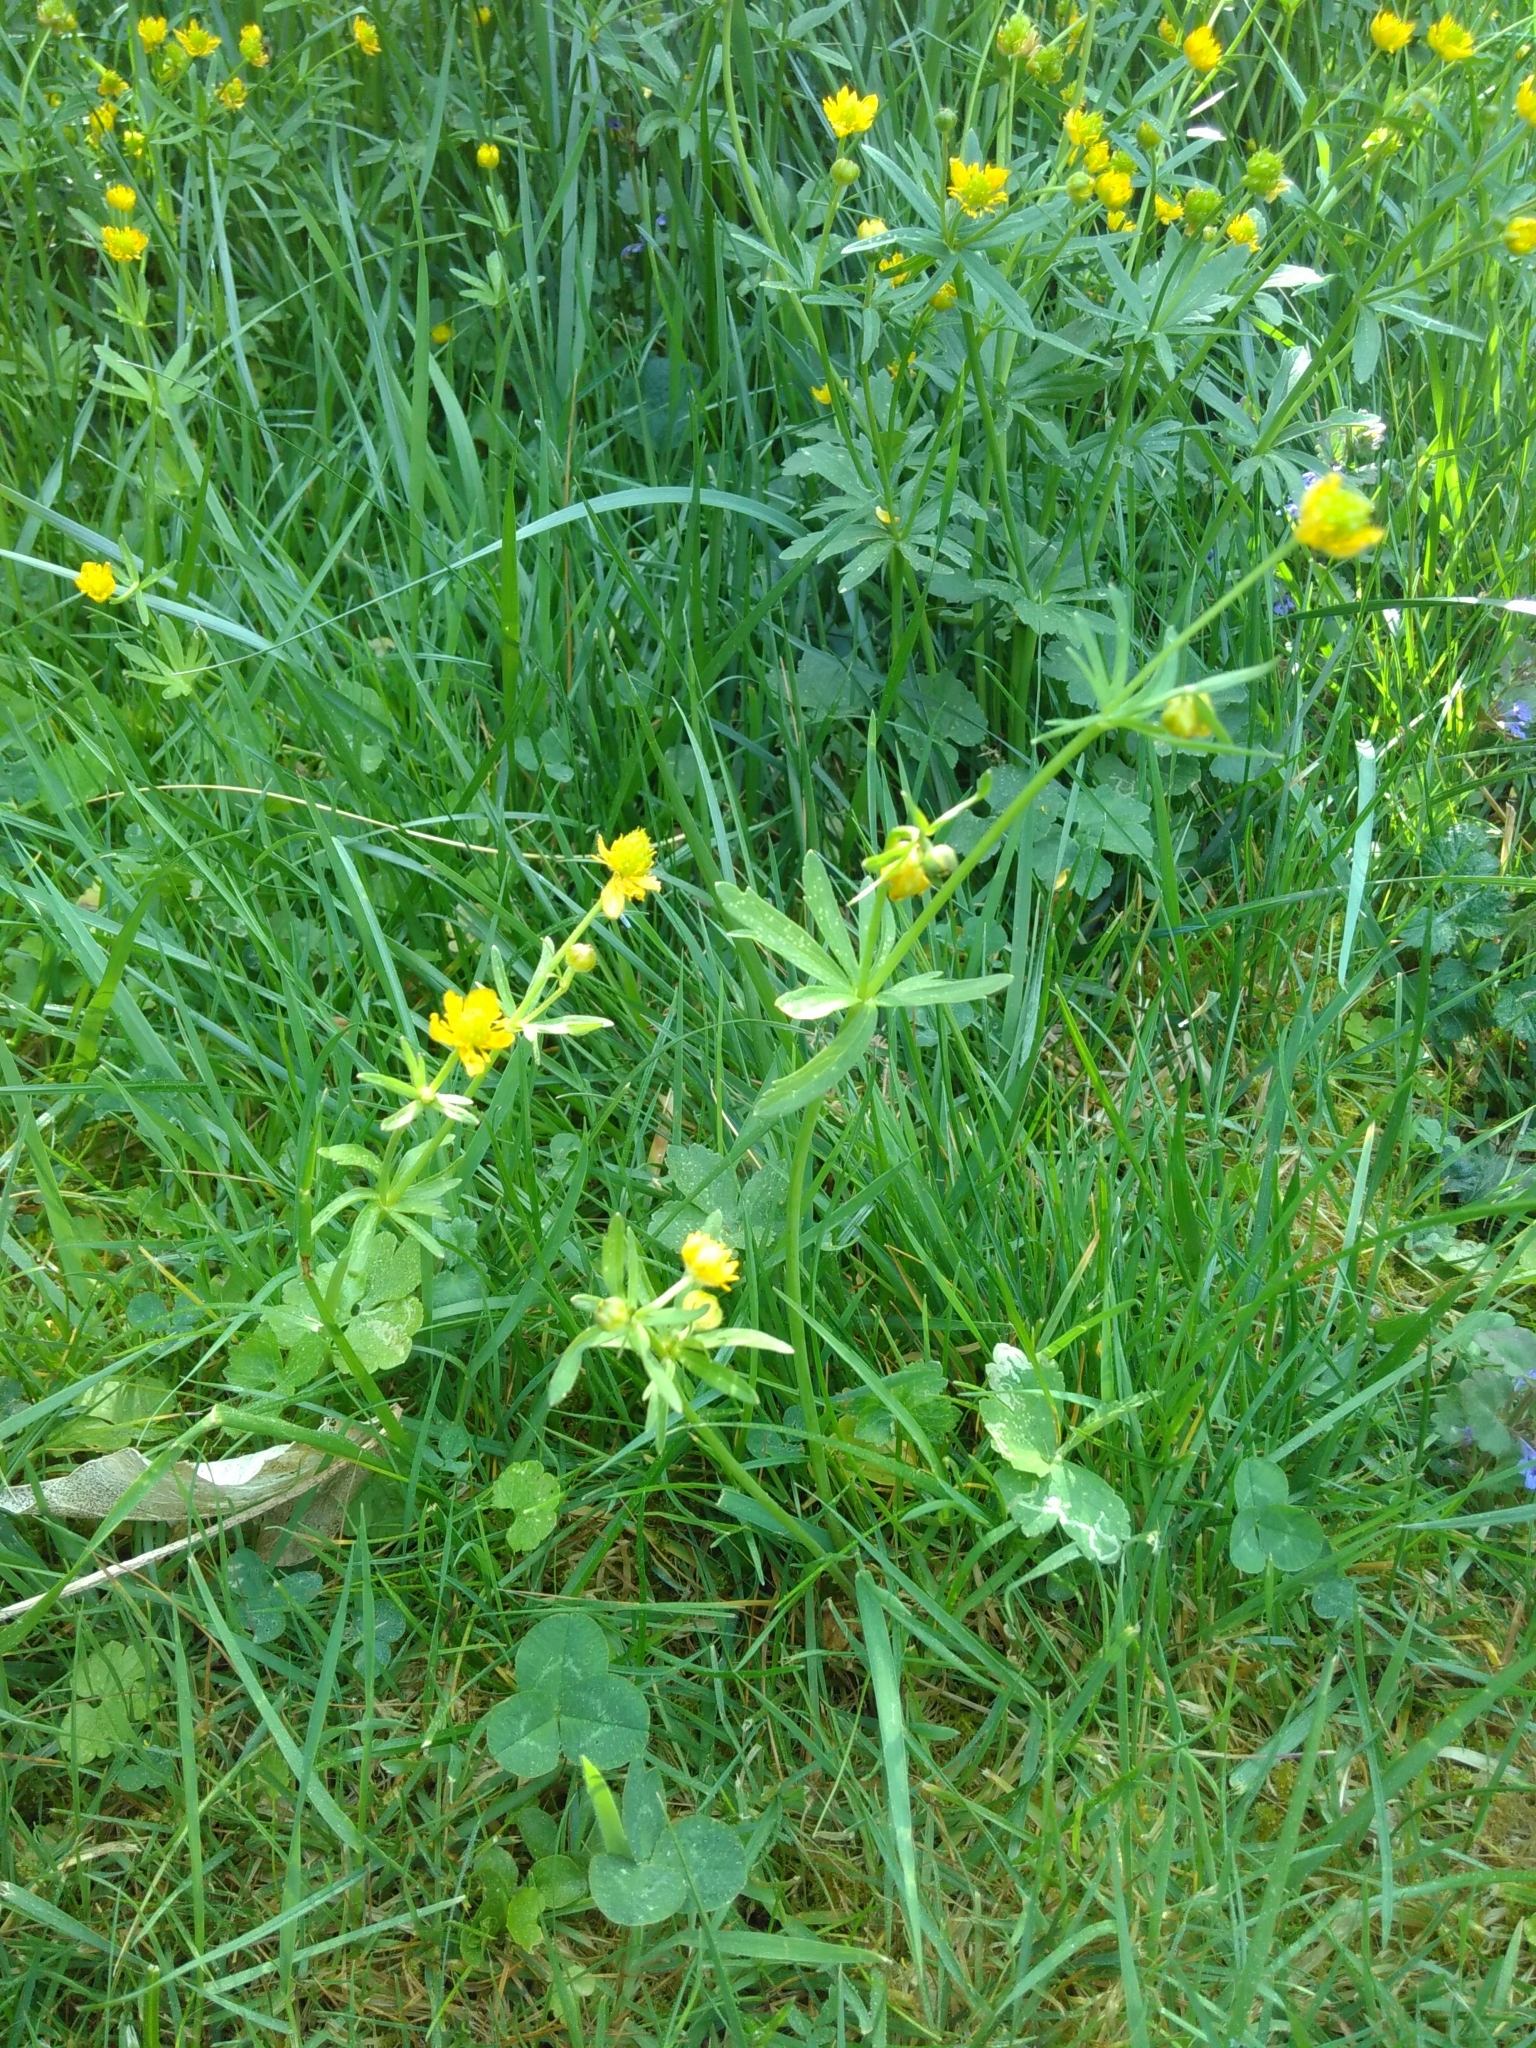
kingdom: Plantae
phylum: Tracheophyta
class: Magnoliopsida
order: Ranunculales
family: Ranunculaceae
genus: Ranunculus
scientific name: Ranunculus auricomus
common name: Goldilocks buttercup
